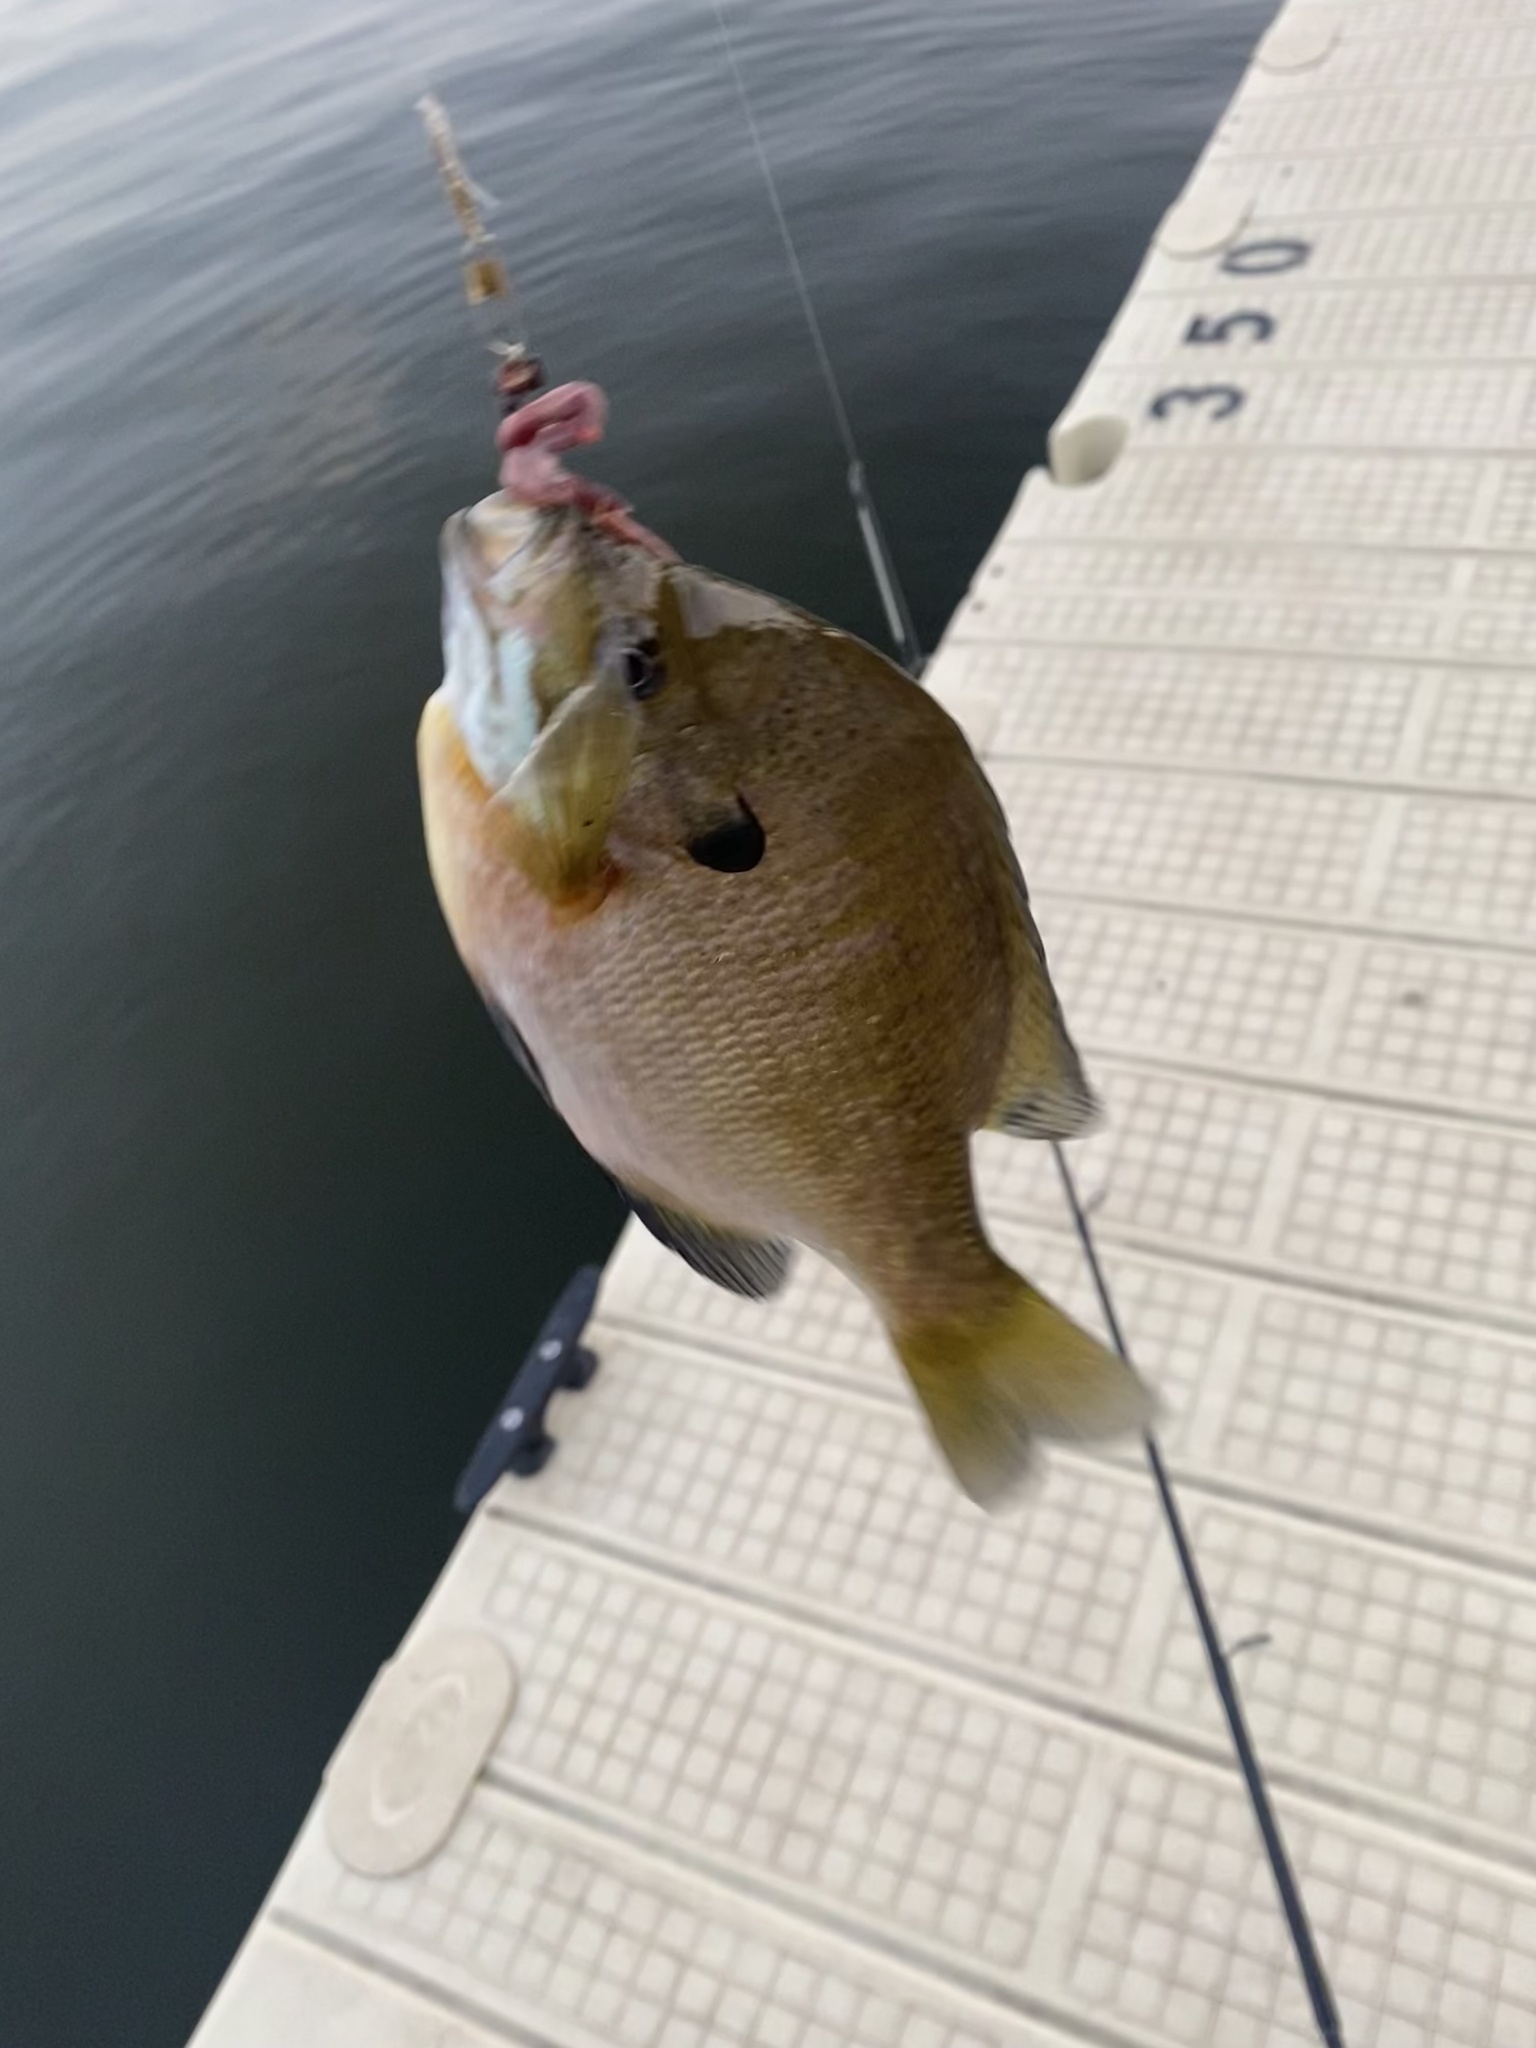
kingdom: Animalia
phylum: Chordata
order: Perciformes
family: Centrarchidae
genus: Lepomis
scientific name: Lepomis macrochirus
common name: Bluegill
